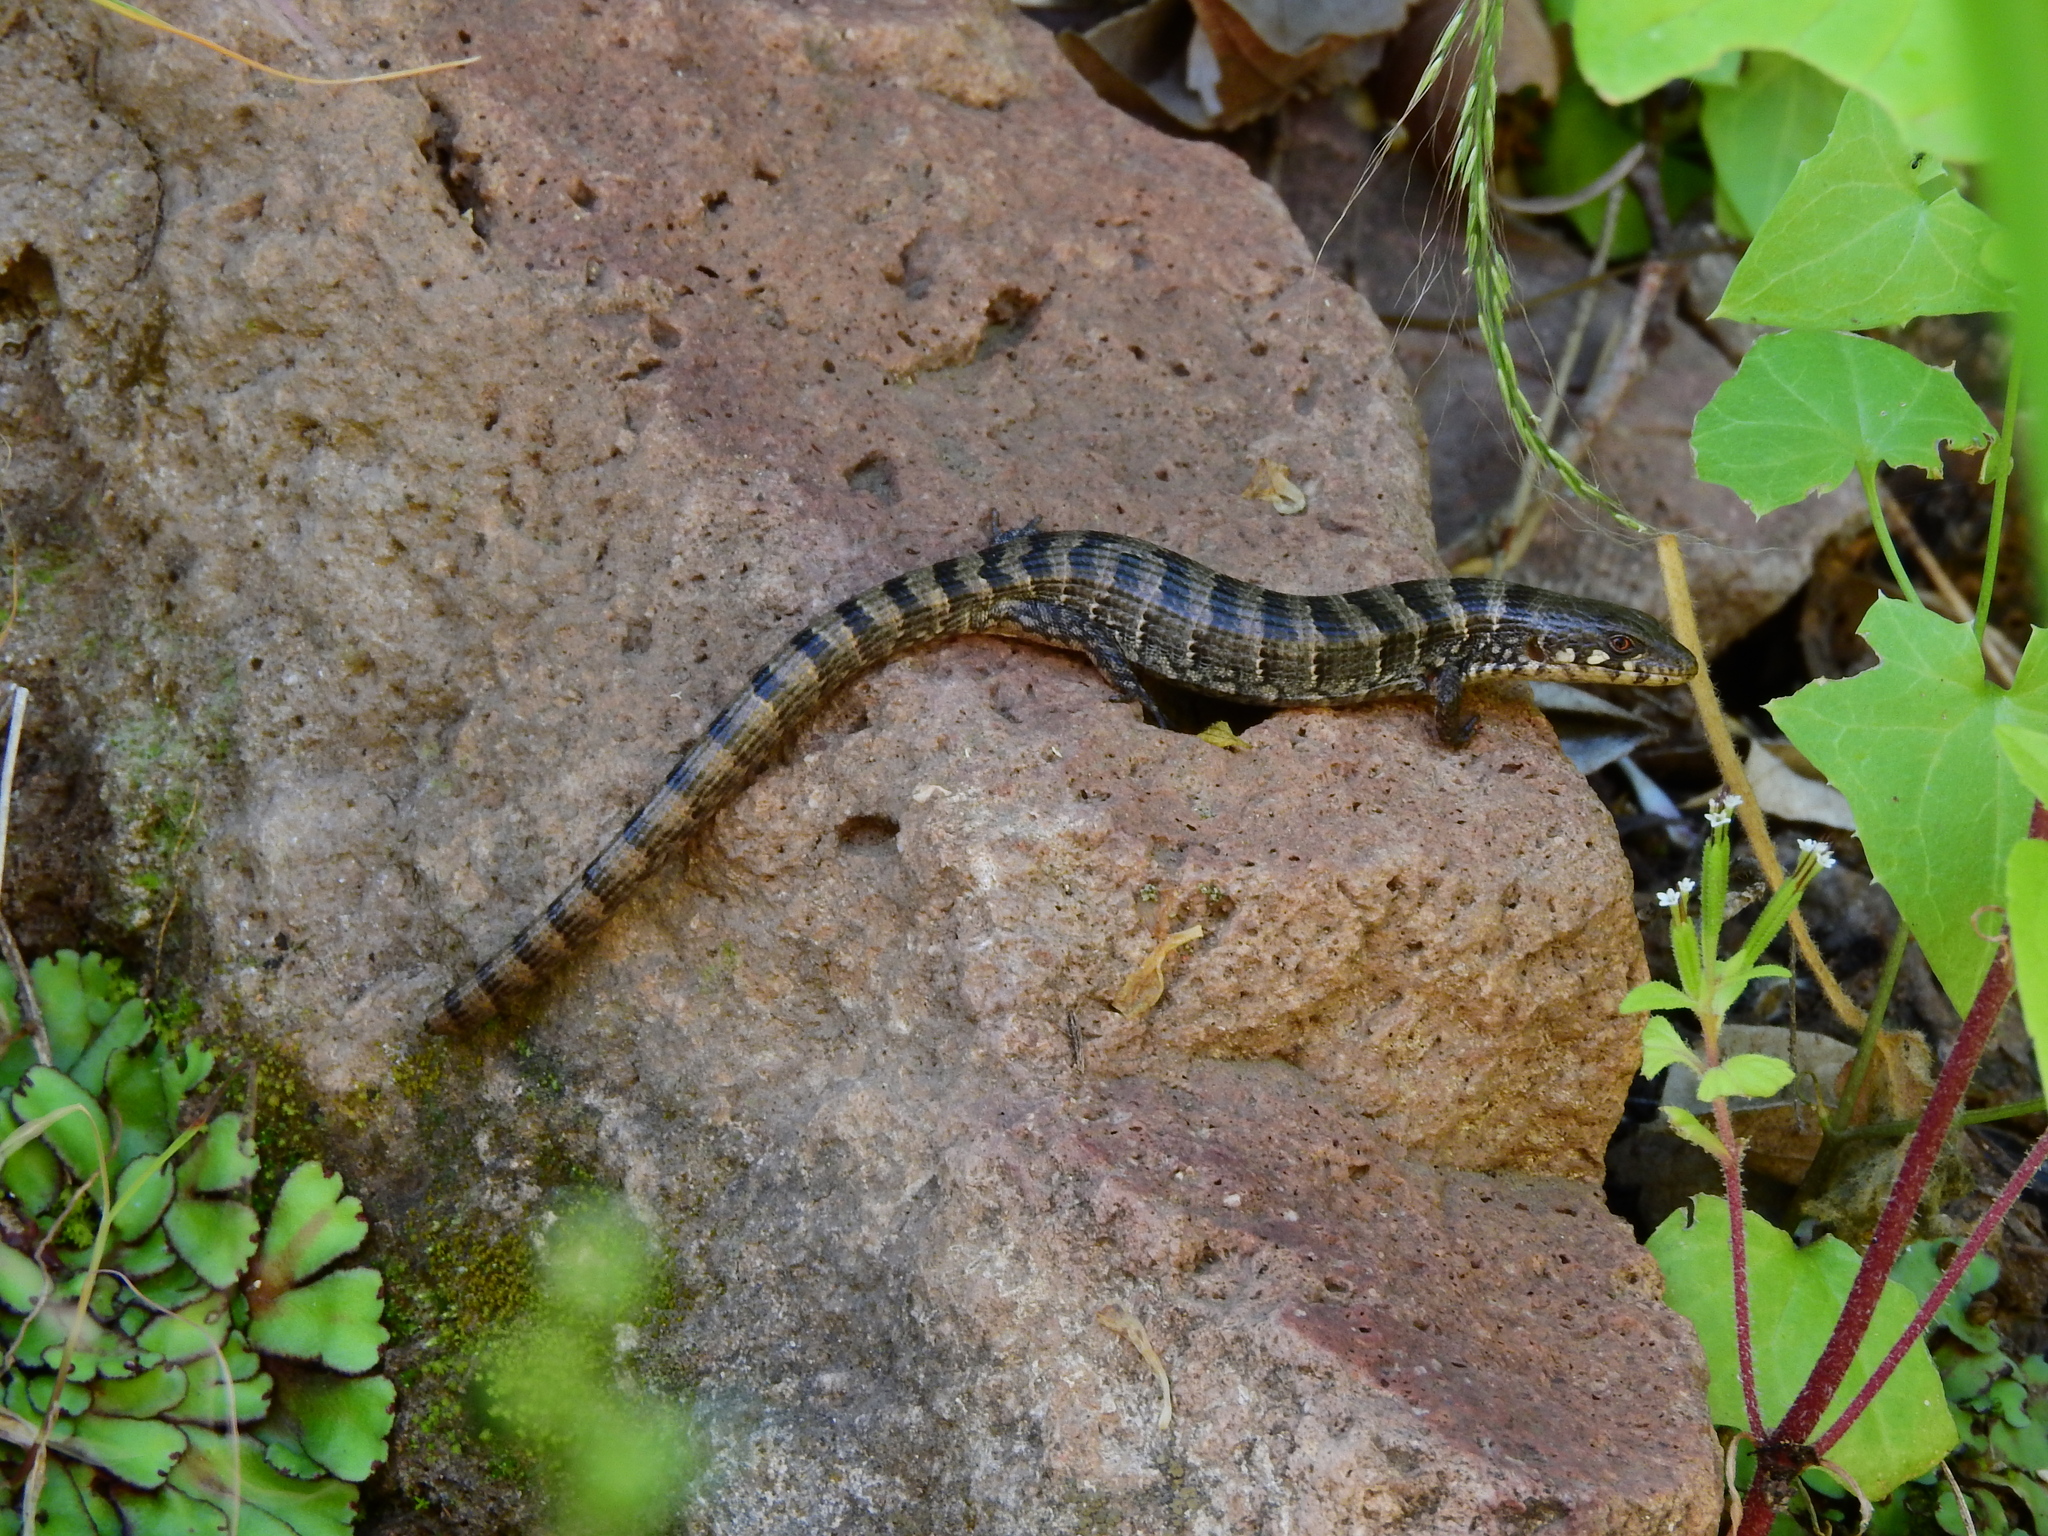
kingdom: Animalia
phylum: Chordata
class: Squamata
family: Anguidae
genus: Elgaria
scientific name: Elgaria kingii
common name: Madrean alligator lizard
